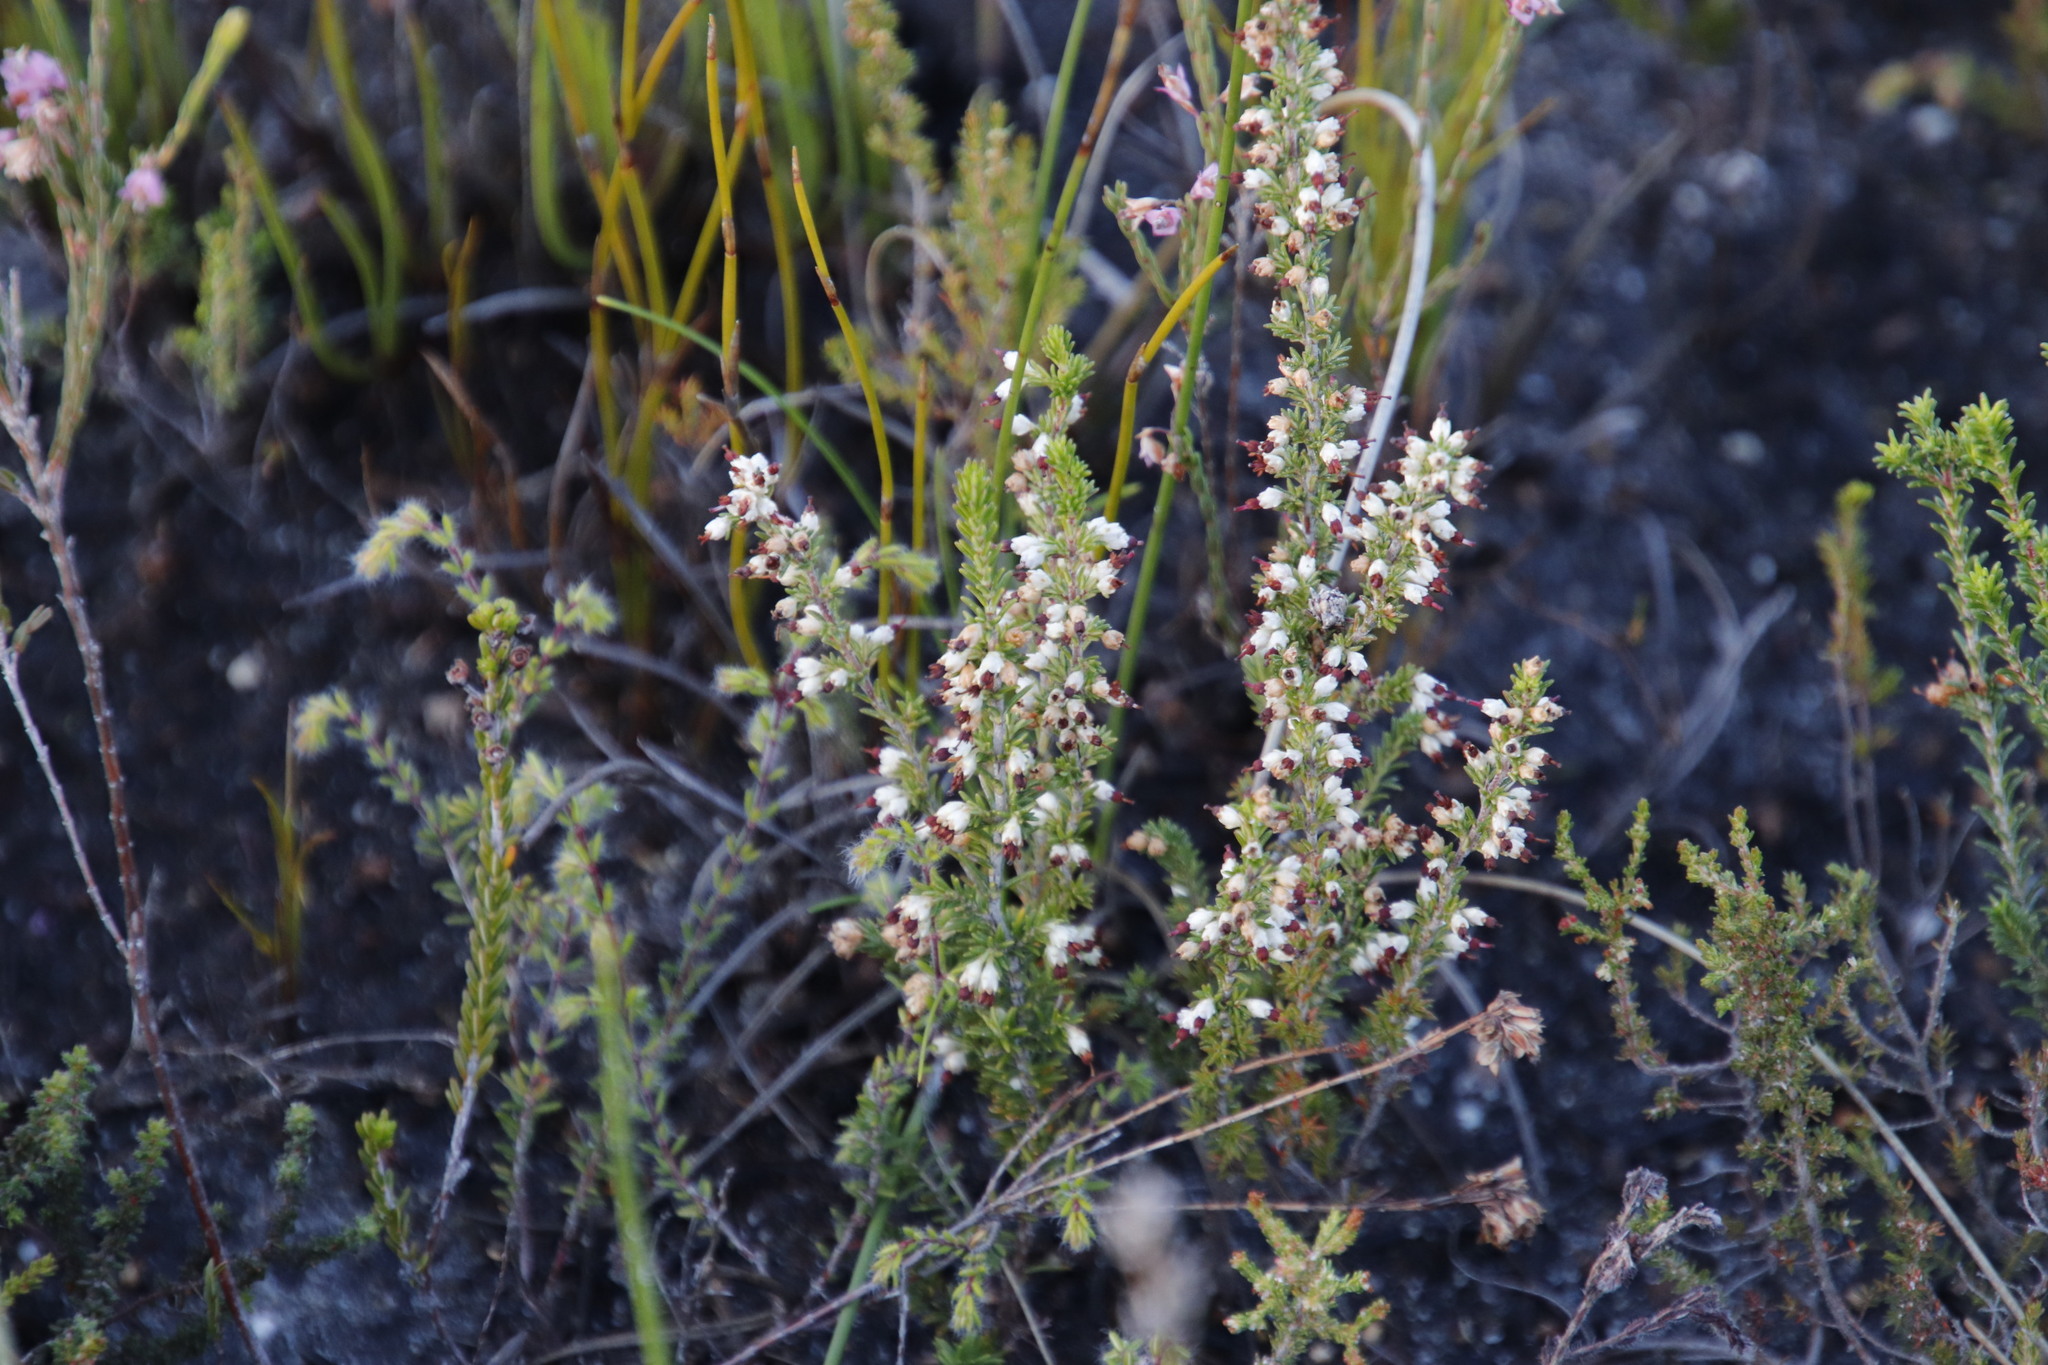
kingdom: Plantae
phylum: Tracheophyta
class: Magnoliopsida
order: Ericales
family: Ericaceae
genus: Erica
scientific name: Erica lasciva
